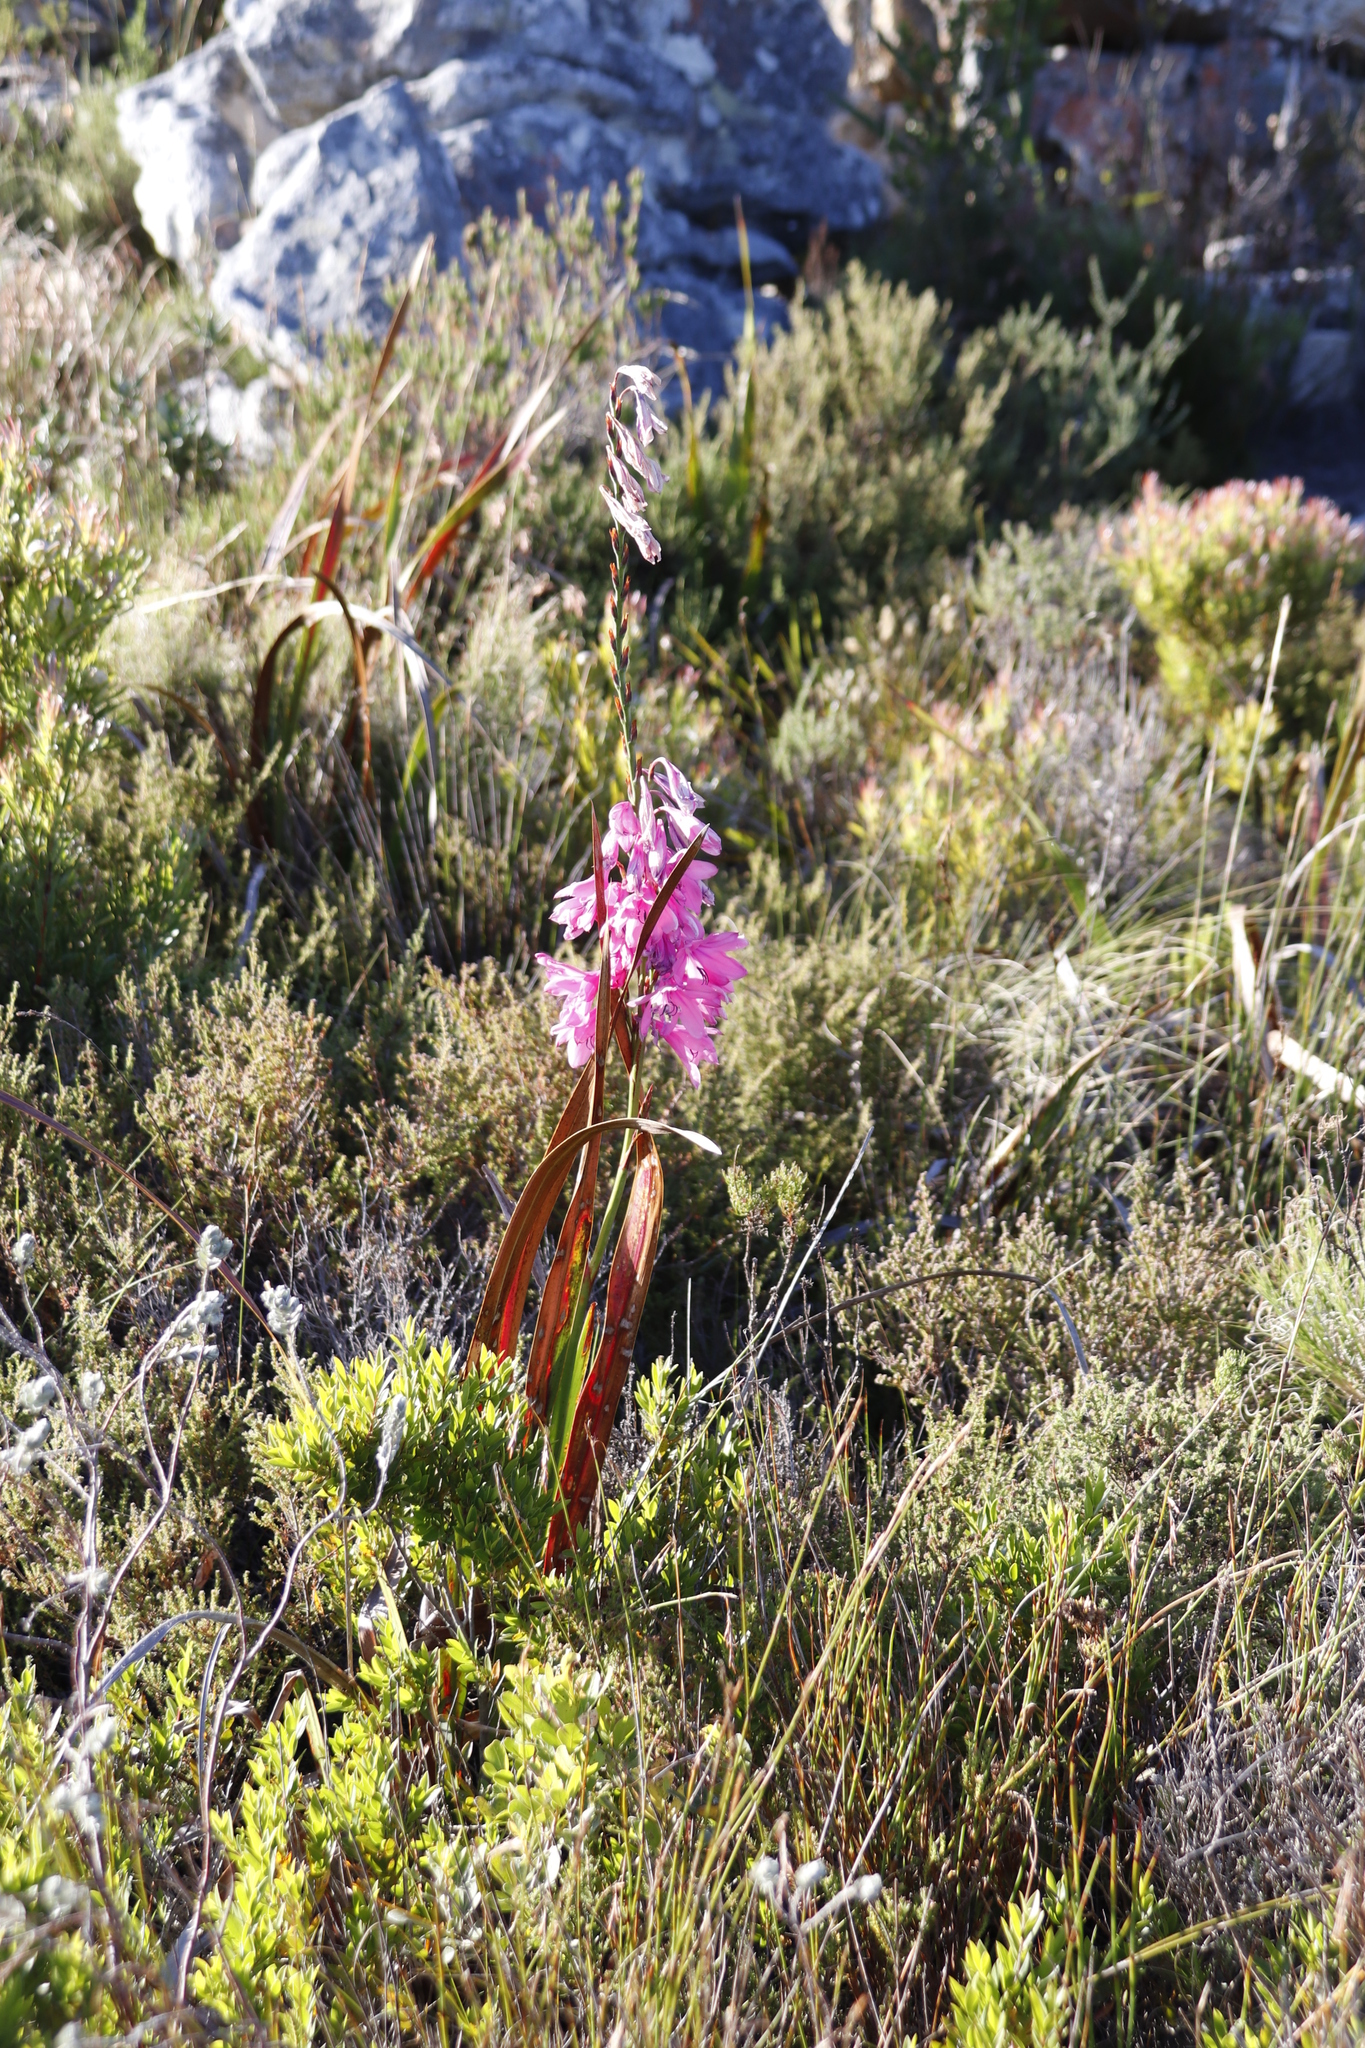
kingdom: Plantae
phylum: Tracheophyta
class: Liliopsida
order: Asparagales
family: Iridaceae
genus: Watsonia
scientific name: Watsonia borbonica
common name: Bugle-lily
